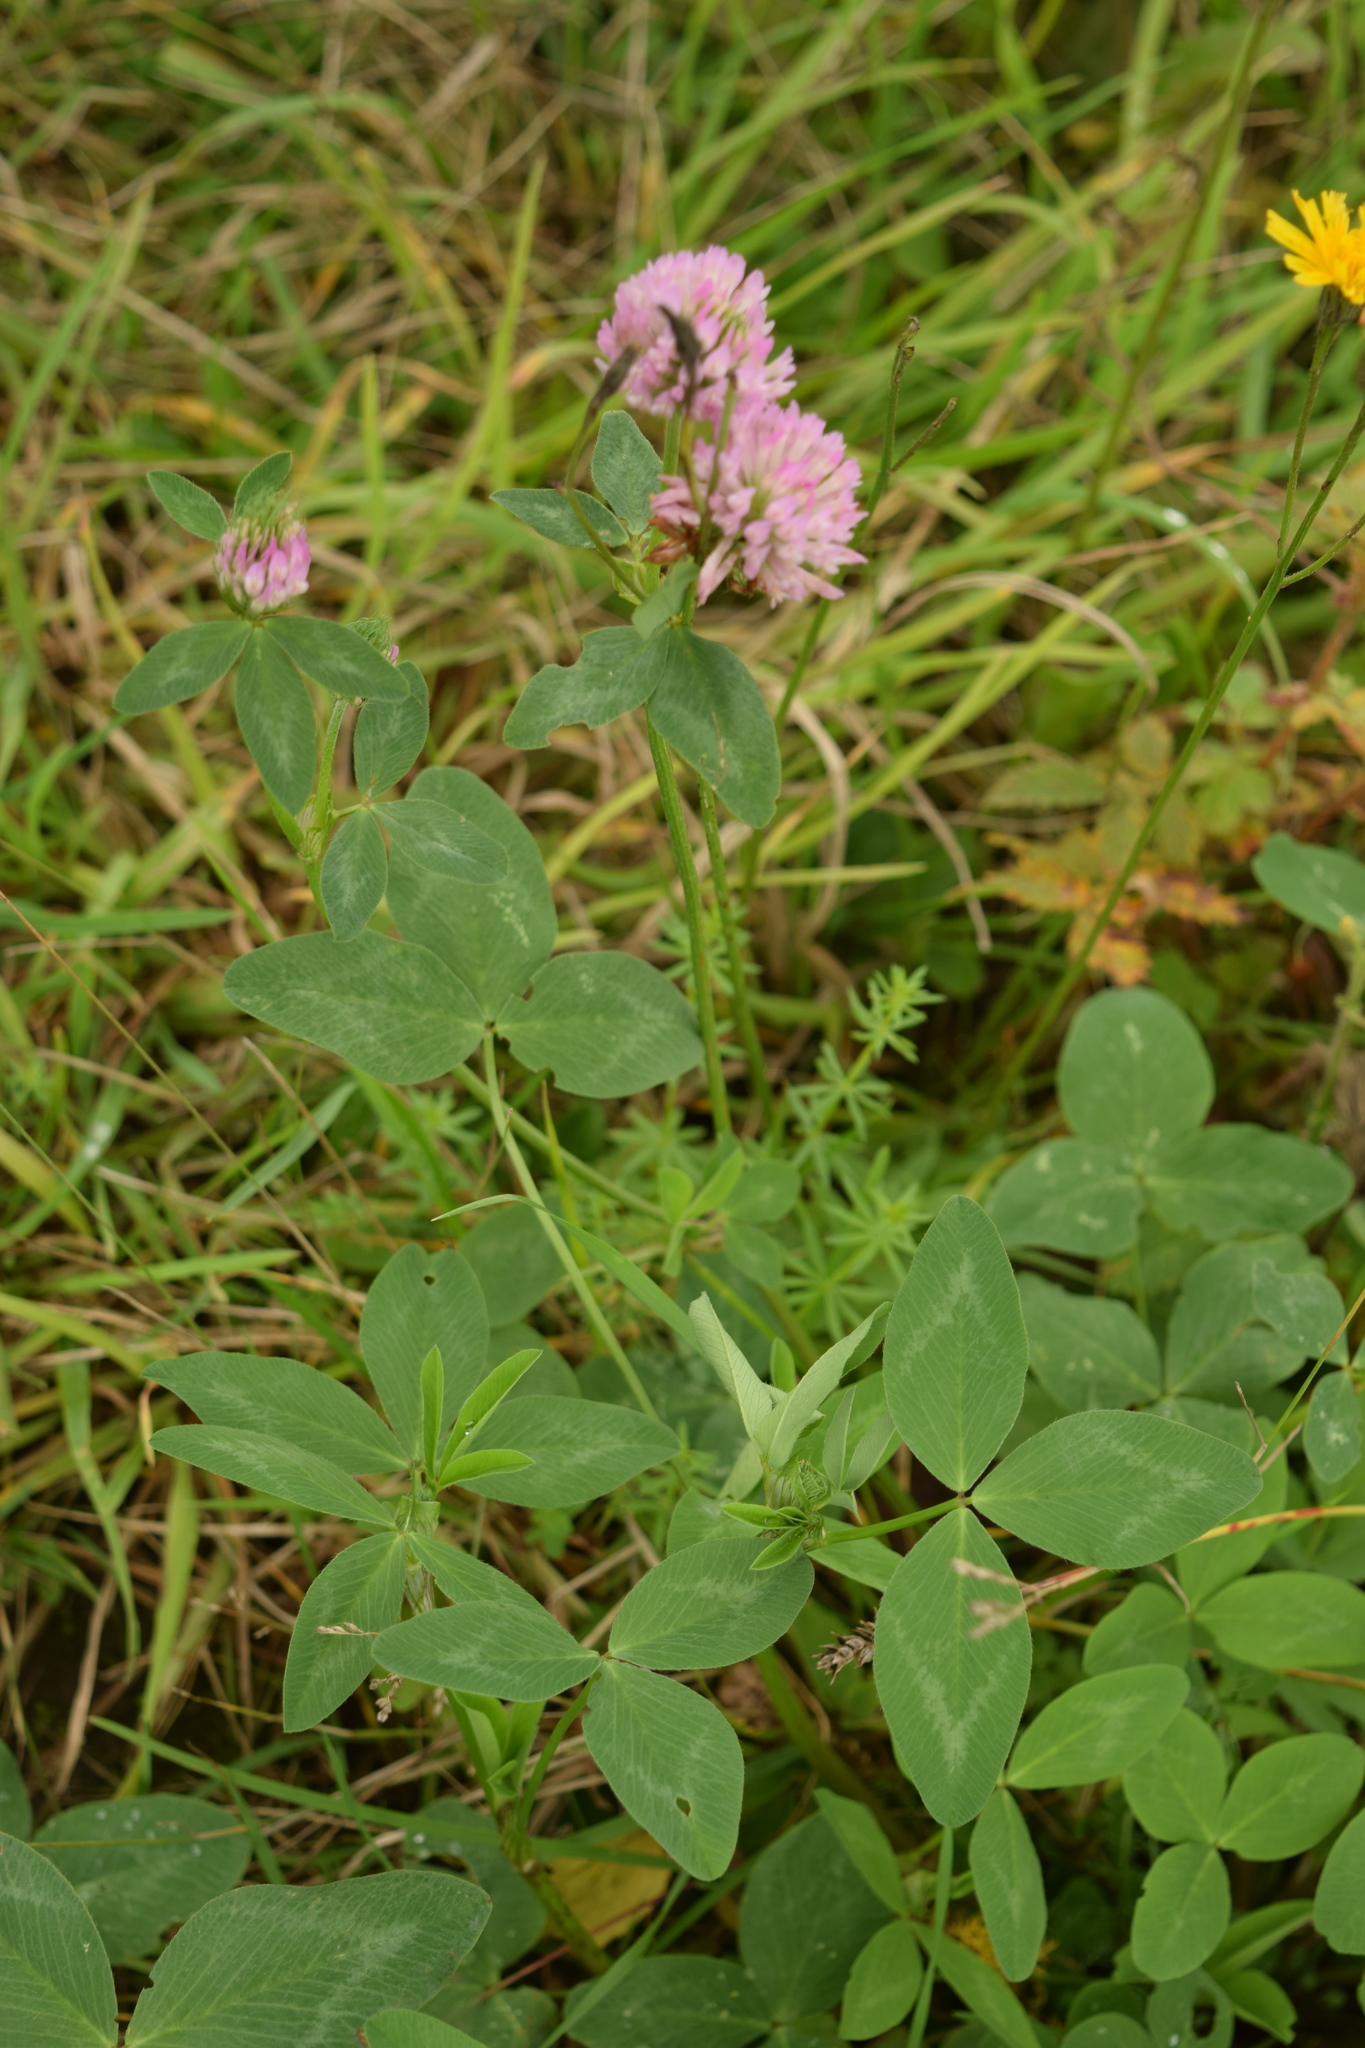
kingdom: Plantae
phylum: Tracheophyta
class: Magnoliopsida
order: Fabales
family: Fabaceae
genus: Trifolium
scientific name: Trifolium pratense
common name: Red clover
